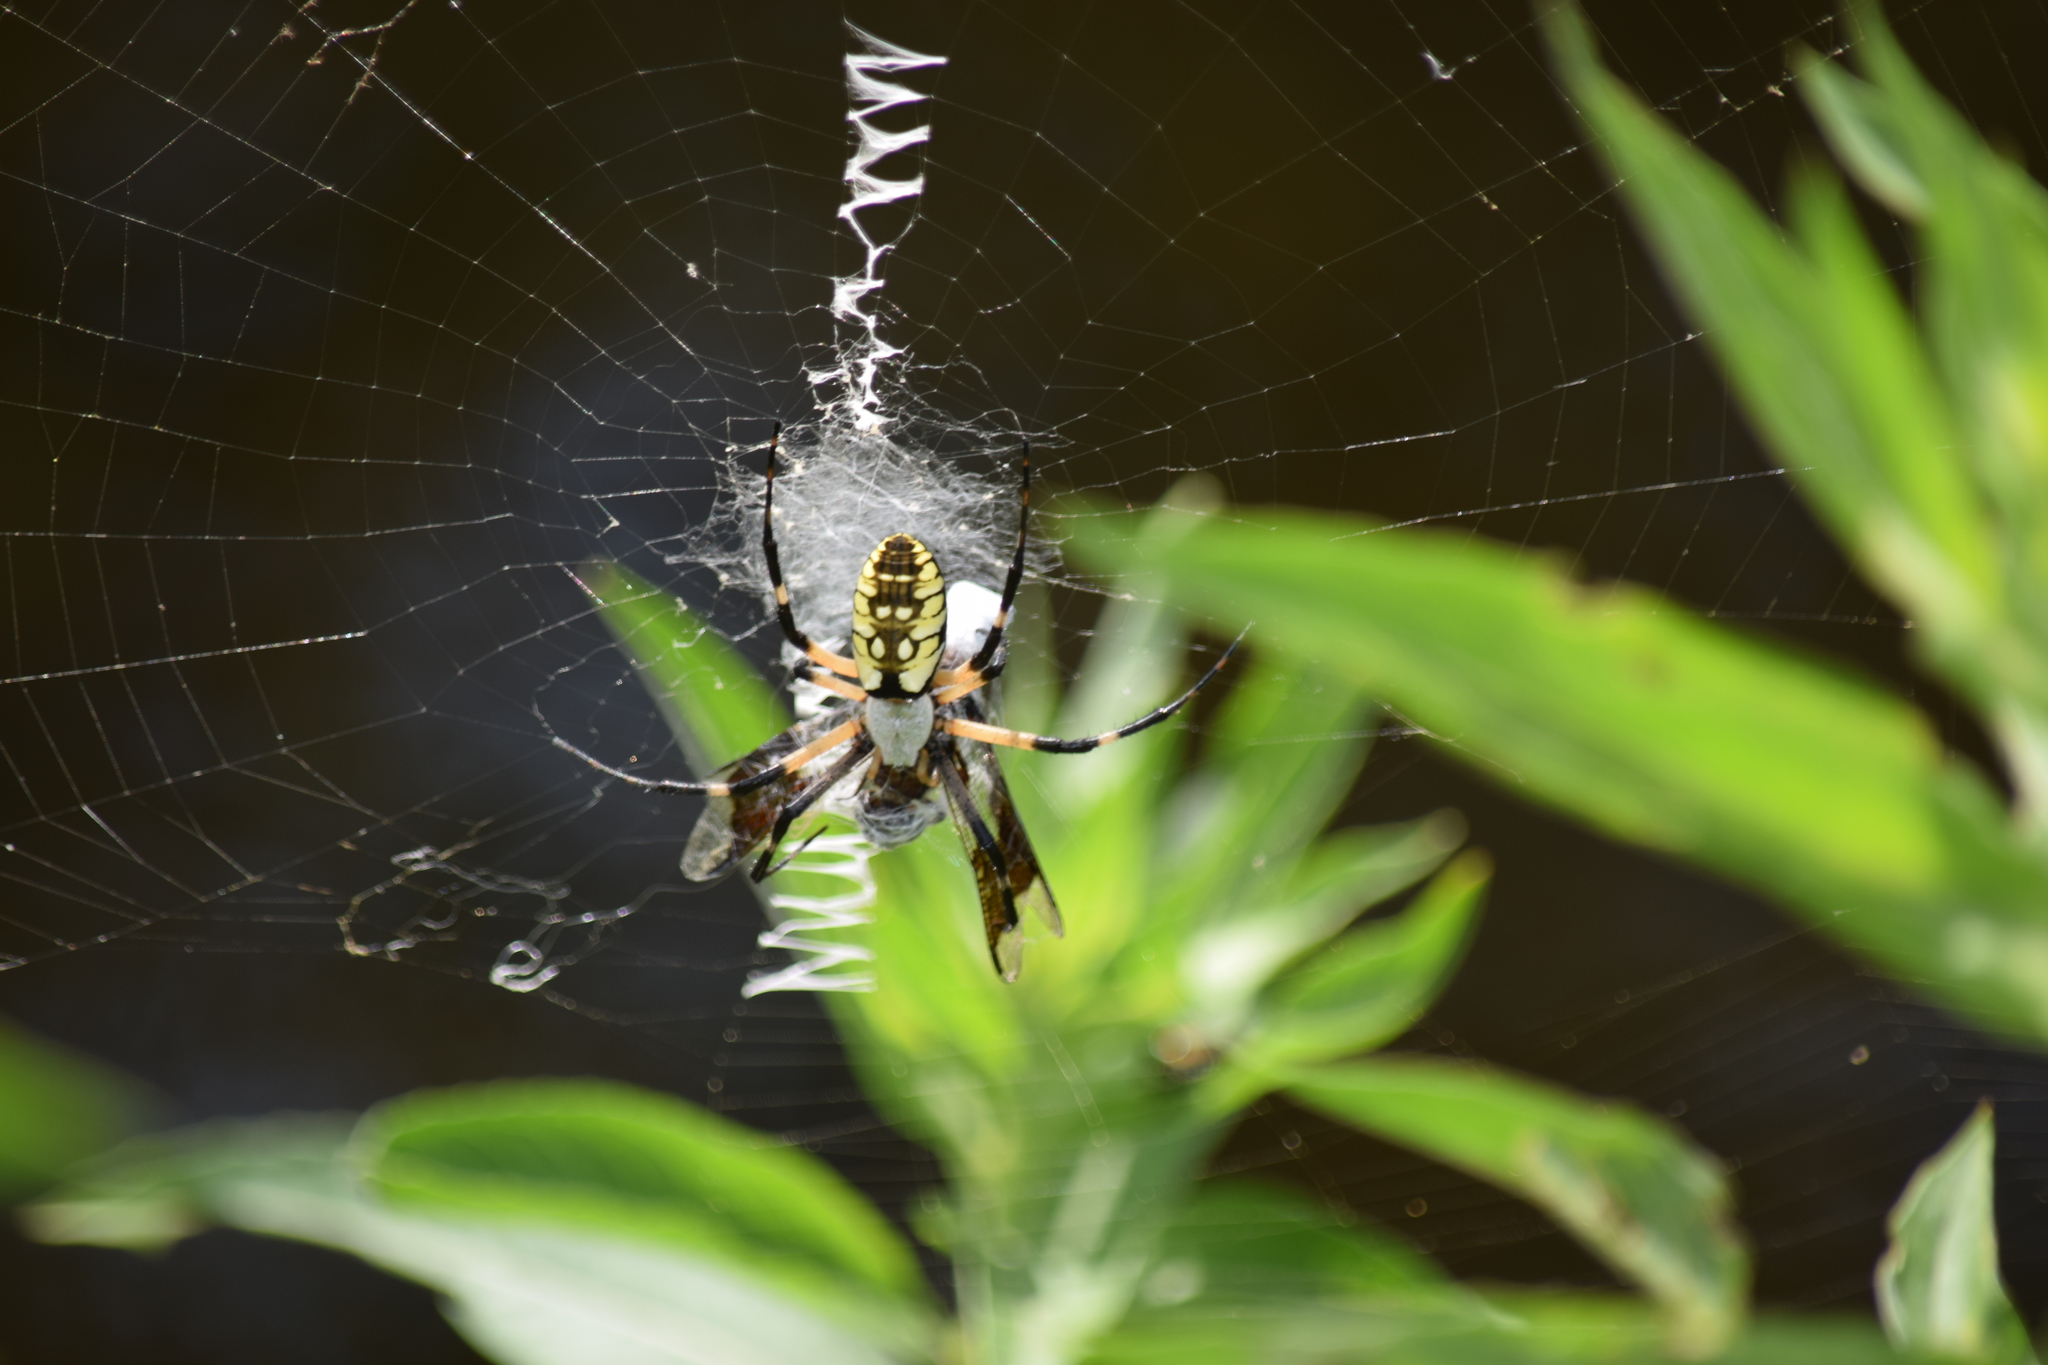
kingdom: Animalia
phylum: Arthropoda
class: Arachnida
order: Araneae
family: Araneidae
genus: Argiope
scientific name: Argiope aurantia
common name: Orb weavers
